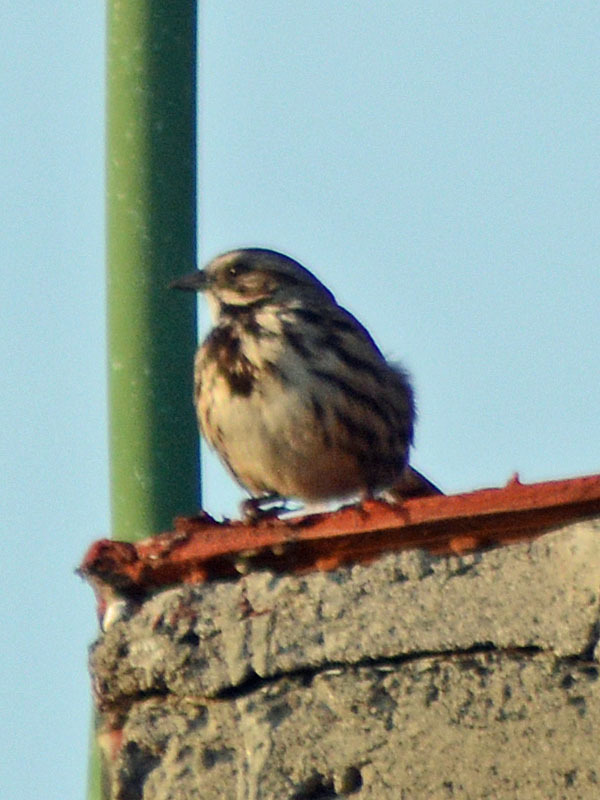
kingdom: Animalia
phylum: Chordata
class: Aves
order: Passeriformes
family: Passerellidae
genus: Melospiza
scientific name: Melospiza melodia
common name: Song sparrow
